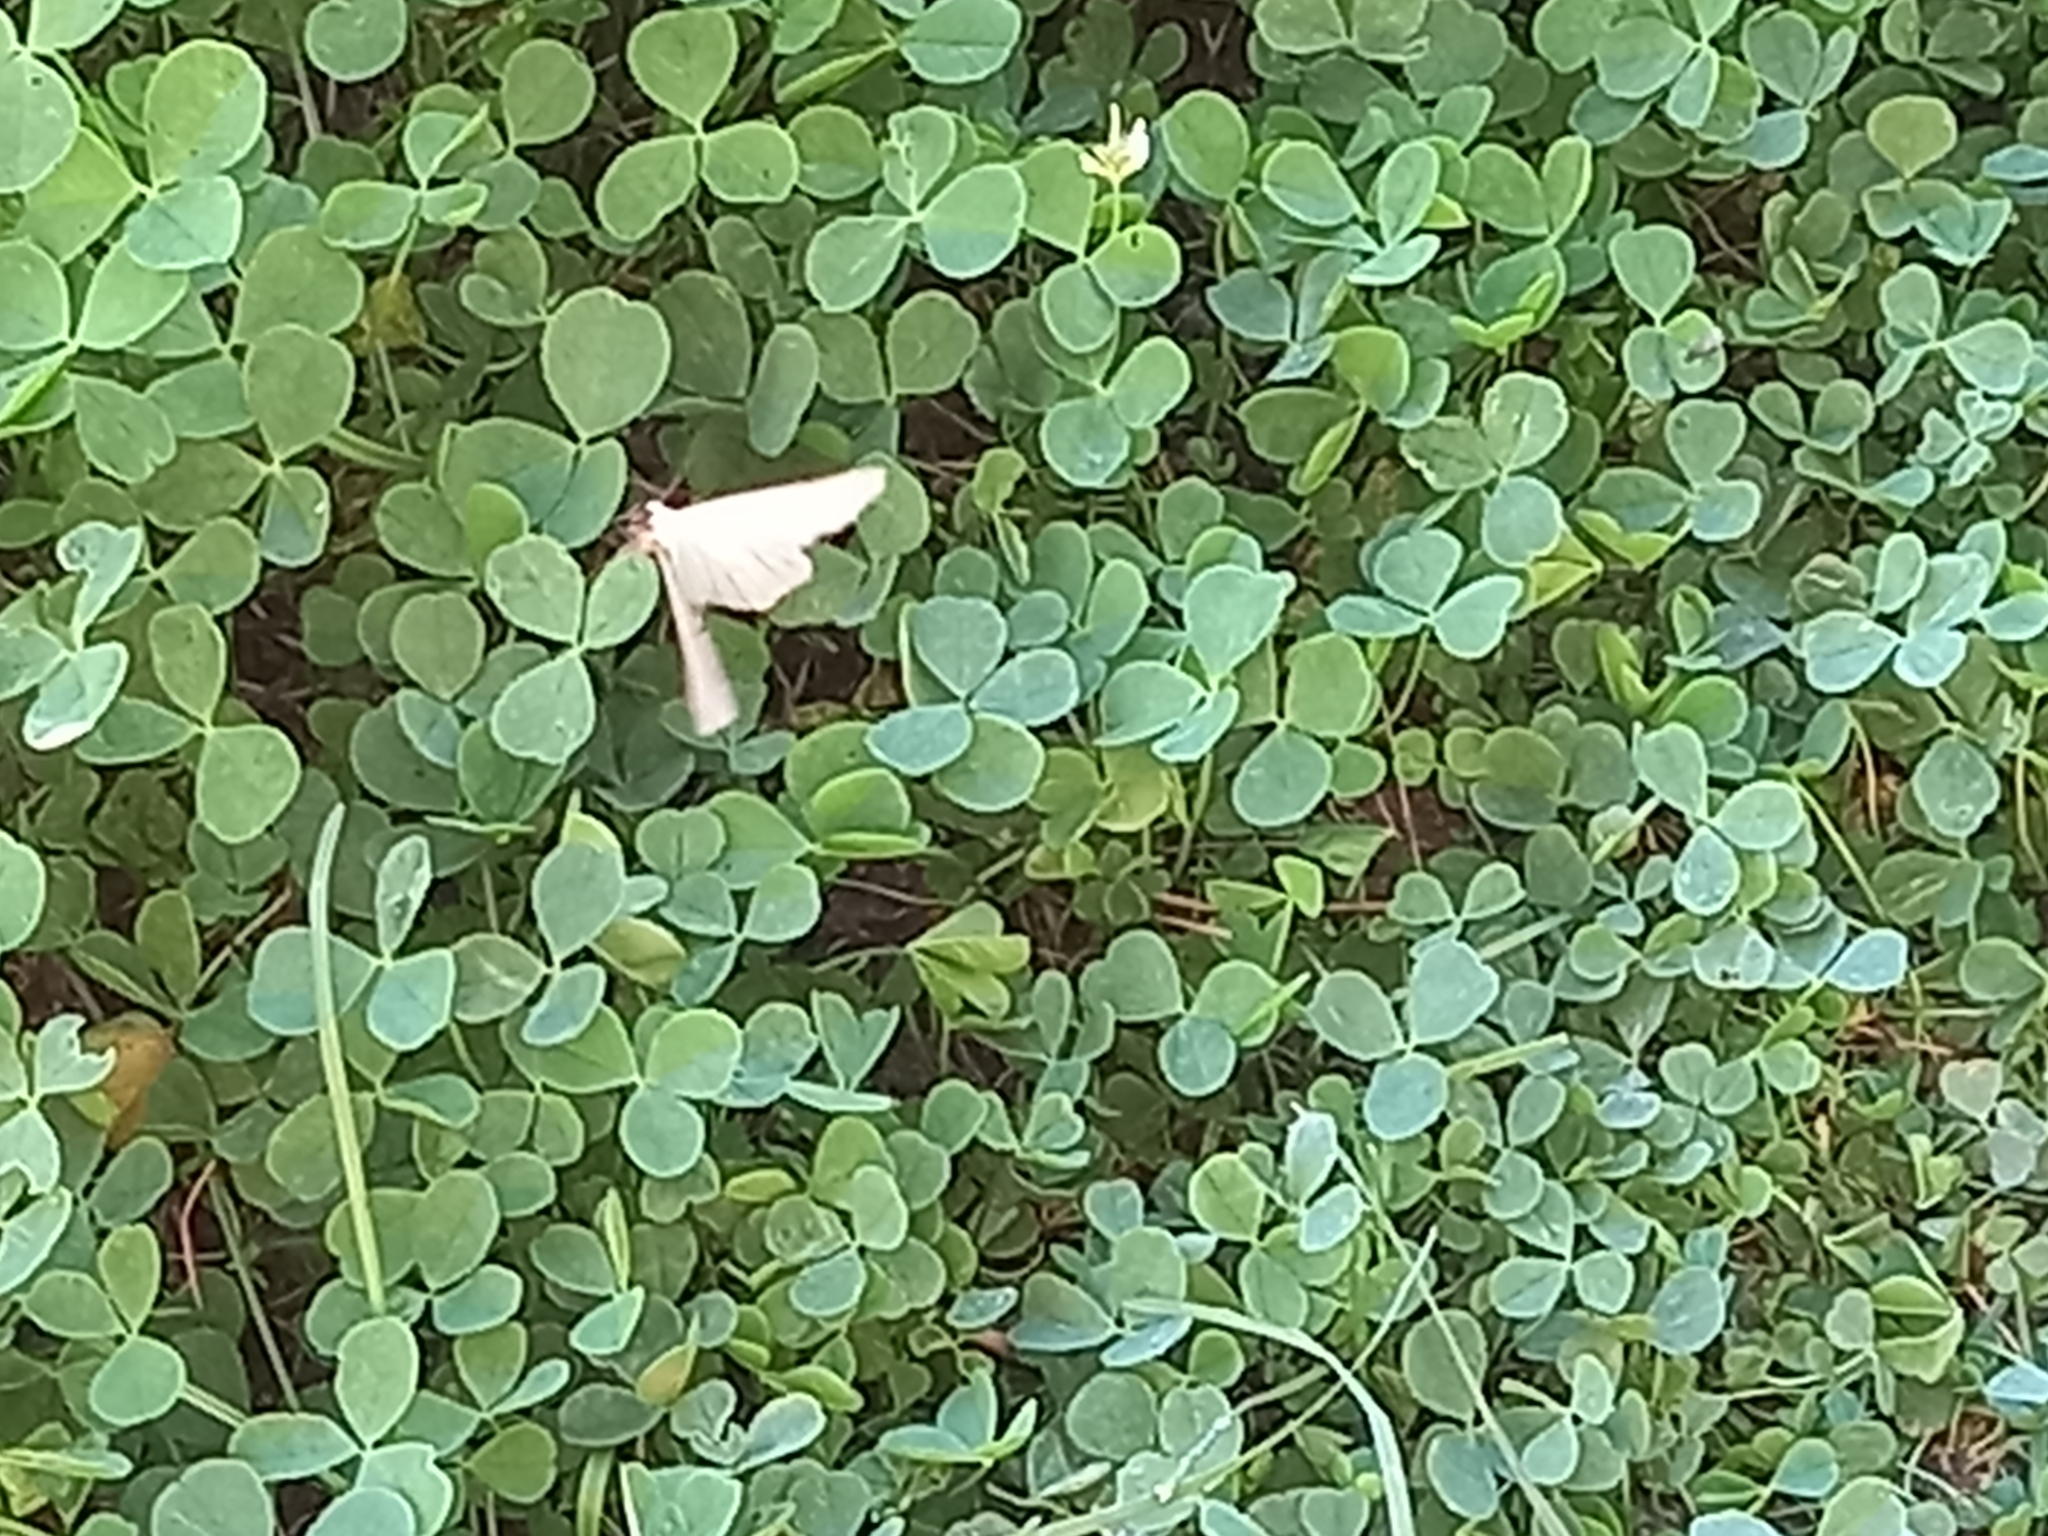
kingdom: Animalia
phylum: Arthropoda
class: Insecta
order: Lepidoptera
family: Geometridae
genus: Siona
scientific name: Siona lineata
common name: Black-veined moth
